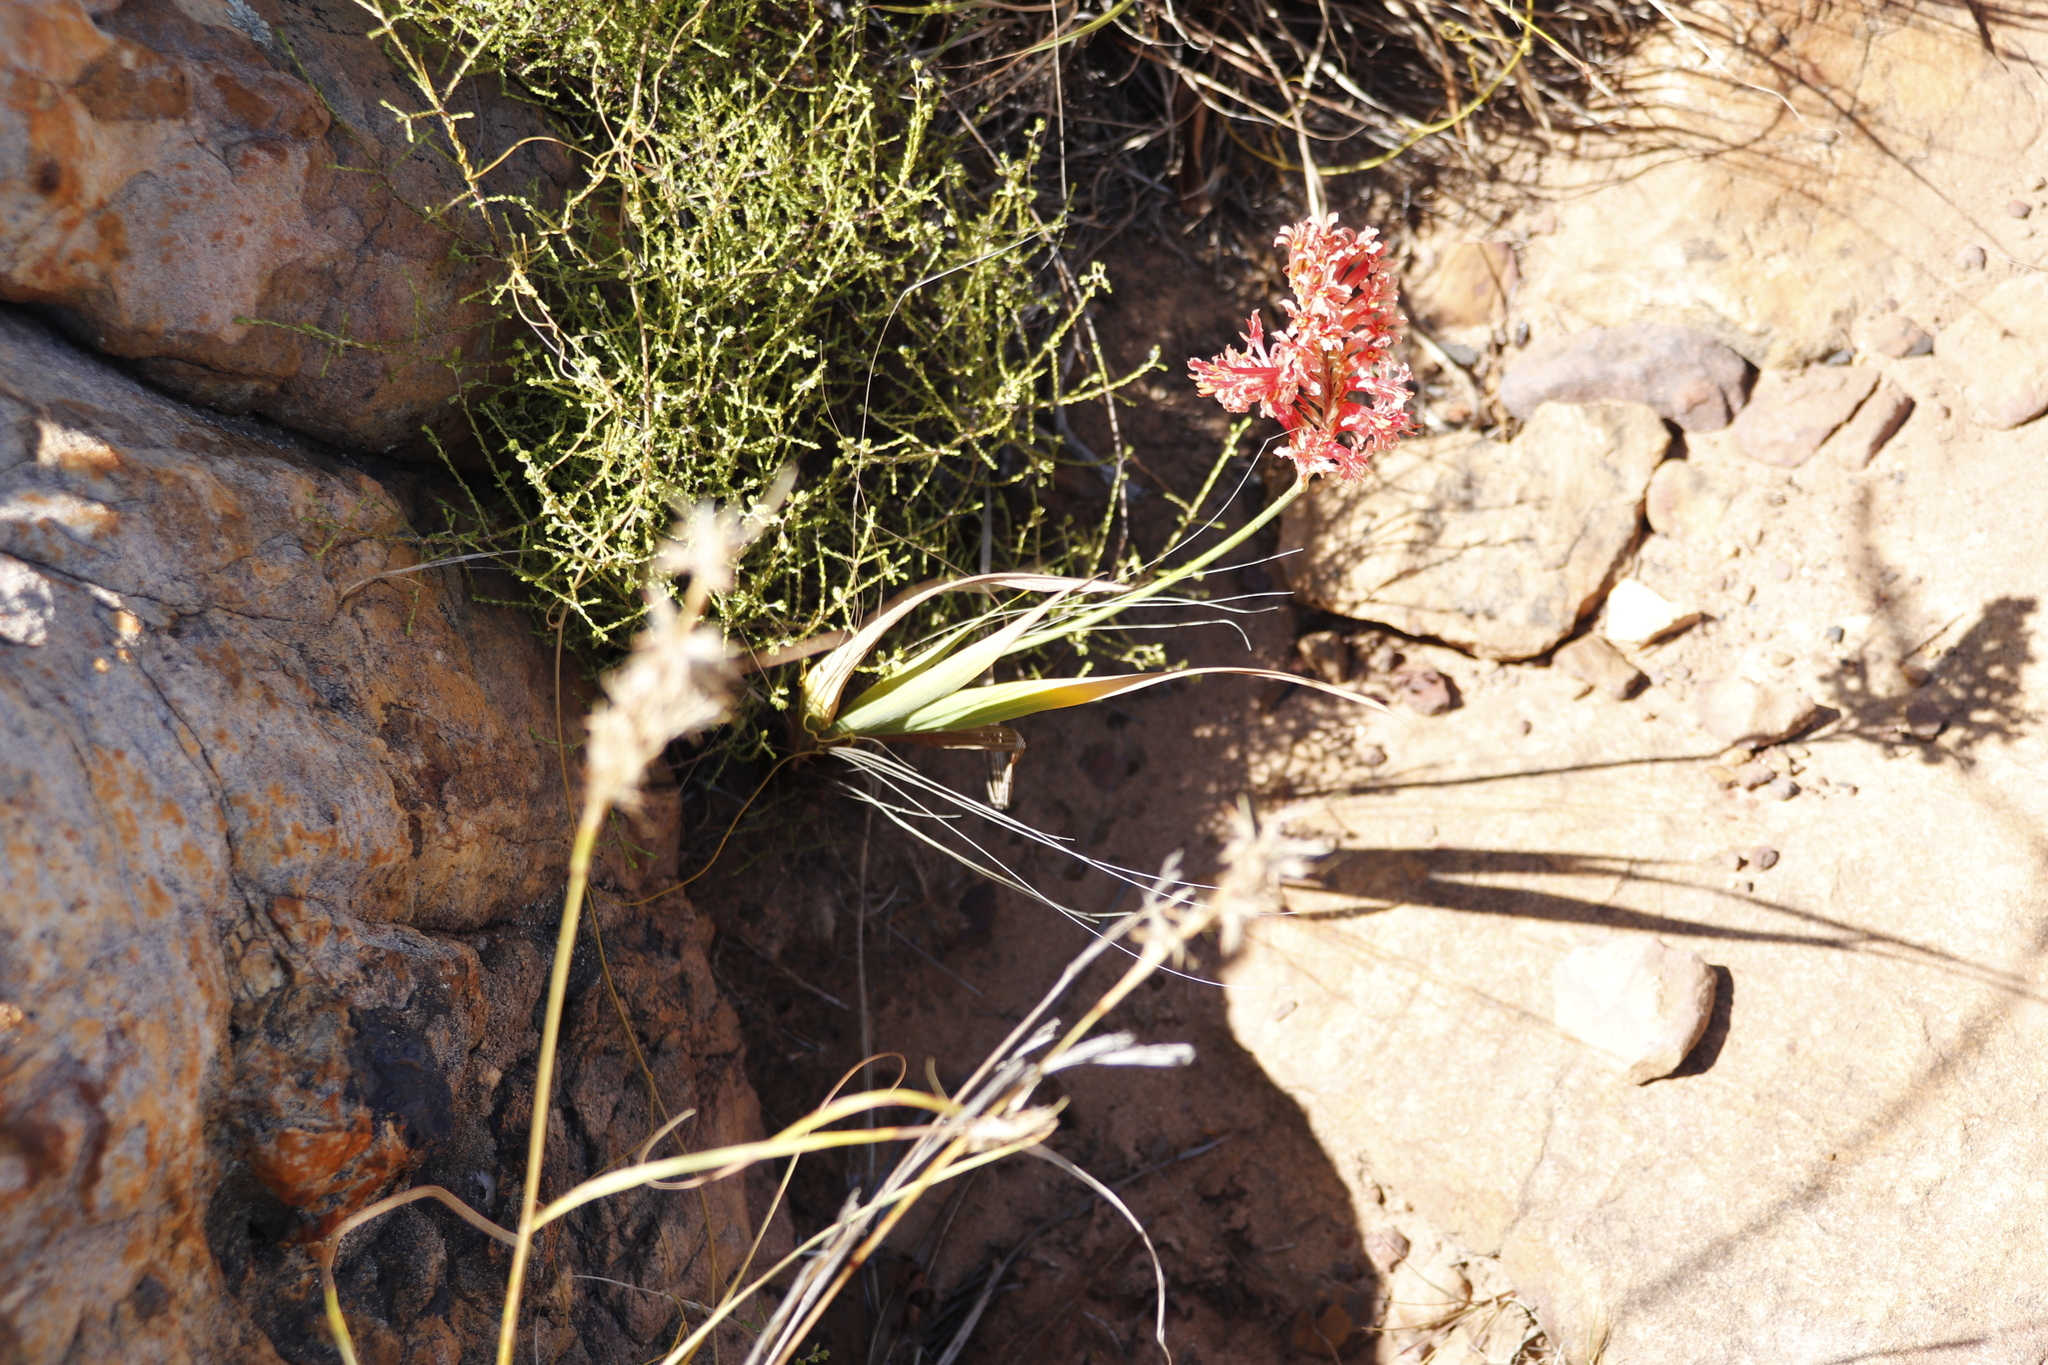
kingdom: Plantae
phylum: Tracheophyta
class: Liliopsida
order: Asparagales
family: Iridaceae
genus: Tritoniopsis
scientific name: Tritoniopsis antholyza
